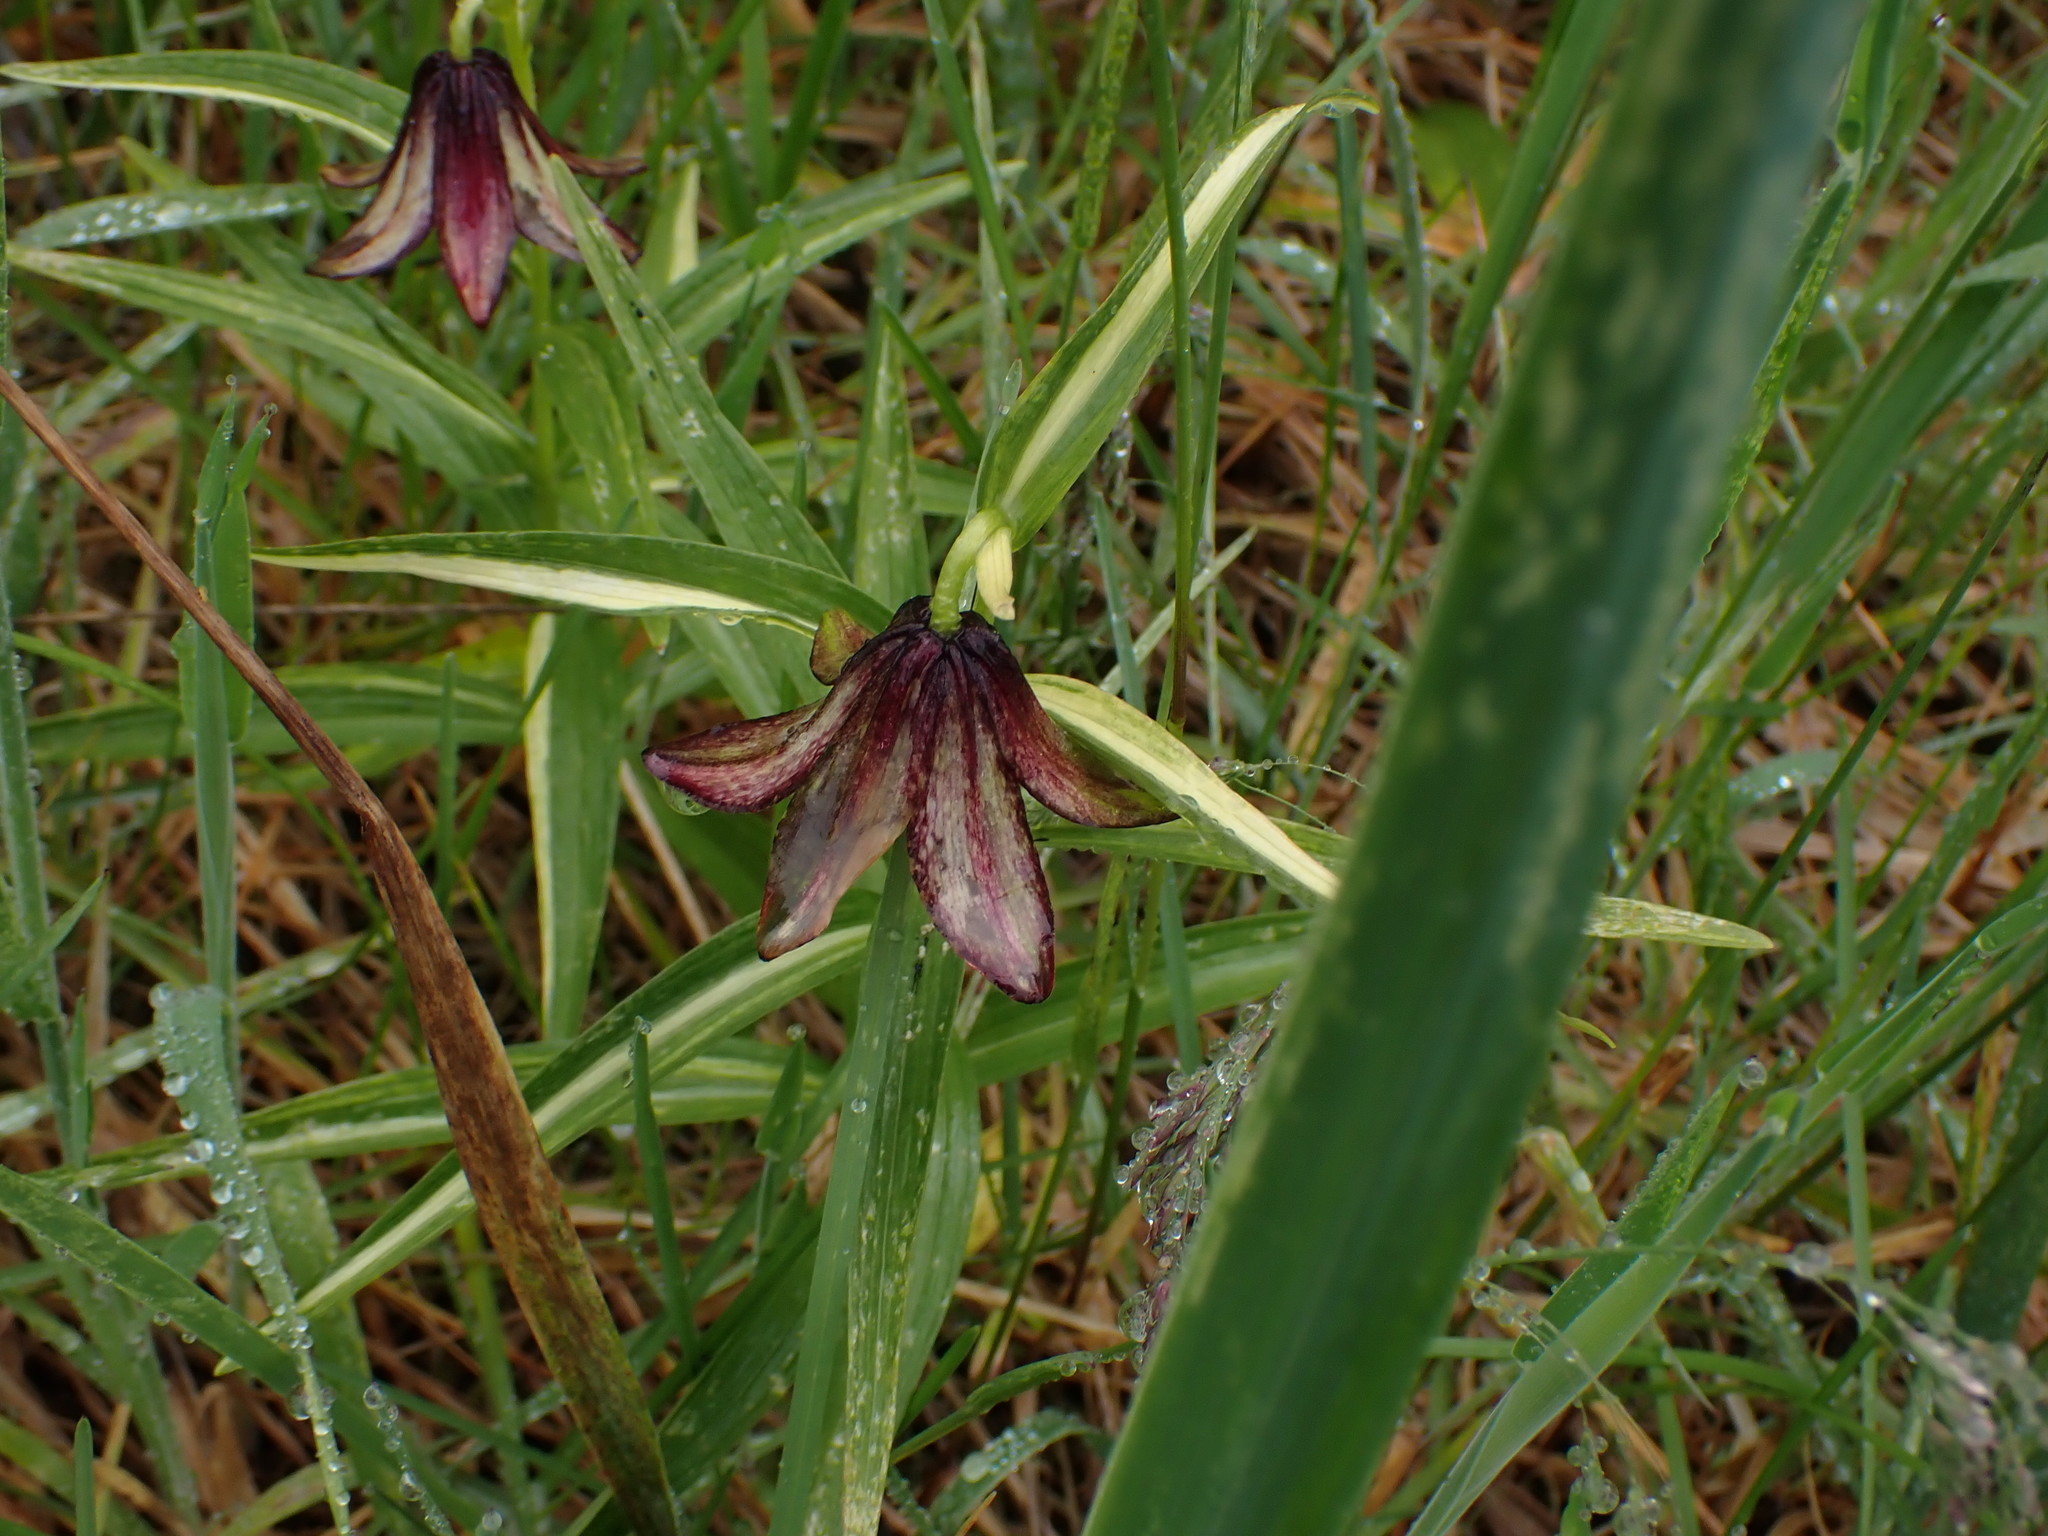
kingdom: Plantae
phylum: Tracheophyta
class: Liliopsida
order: Liliales
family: Liliaceae
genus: Fritillaria
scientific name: Fritillaria camschatcensis
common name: Kamchatka fritillary
